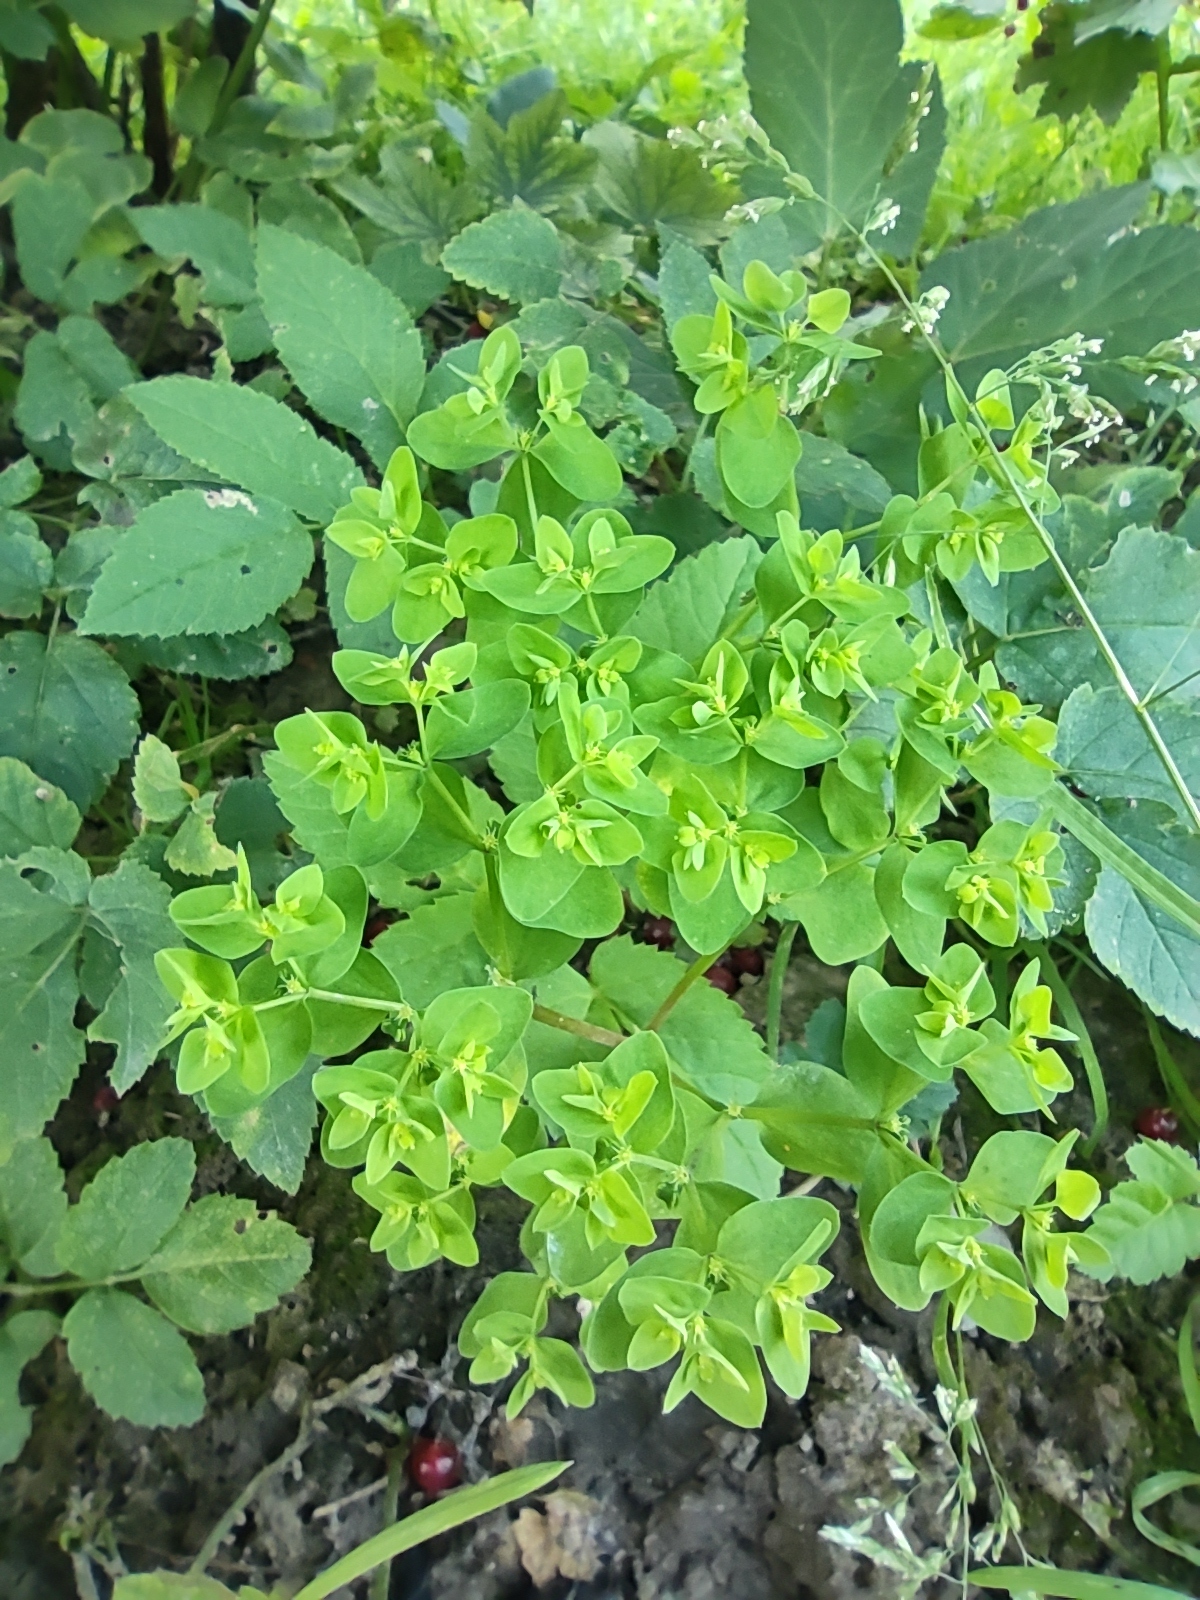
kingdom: Plantae
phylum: Tracheophyta
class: Magnoliopsida
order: Malpighiales
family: Euphorbiaceae
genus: Euphorbia
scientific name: Euphorbia peplus
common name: Petty spurge
